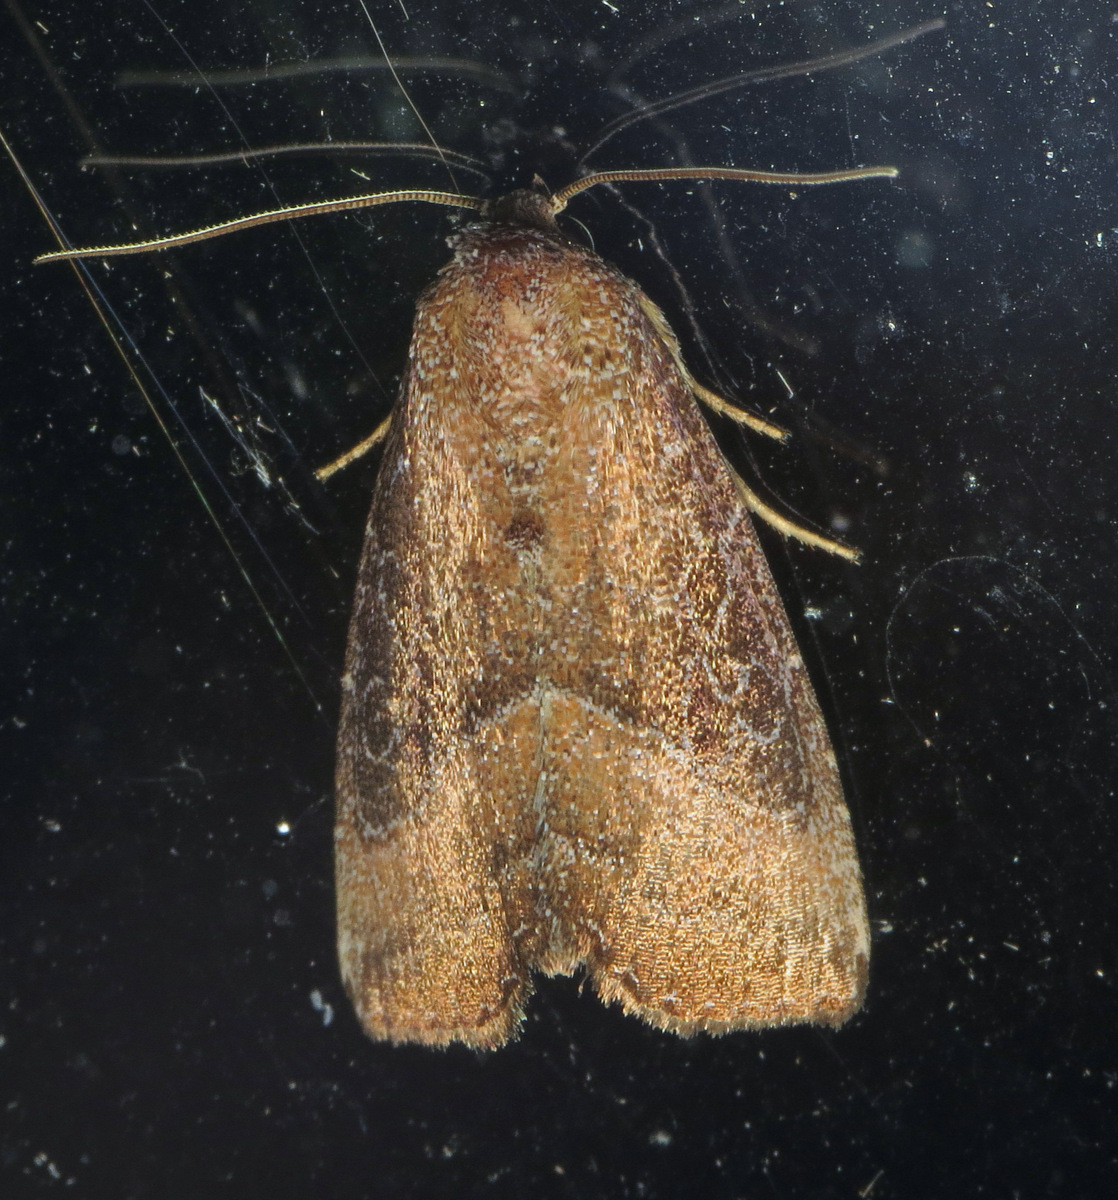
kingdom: Animalia
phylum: Arthropoda
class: Insecta
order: Lepidoptera
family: Noctuidae
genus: Ogdoconta
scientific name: Ogdoconta cinereola
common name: Common pinkband
